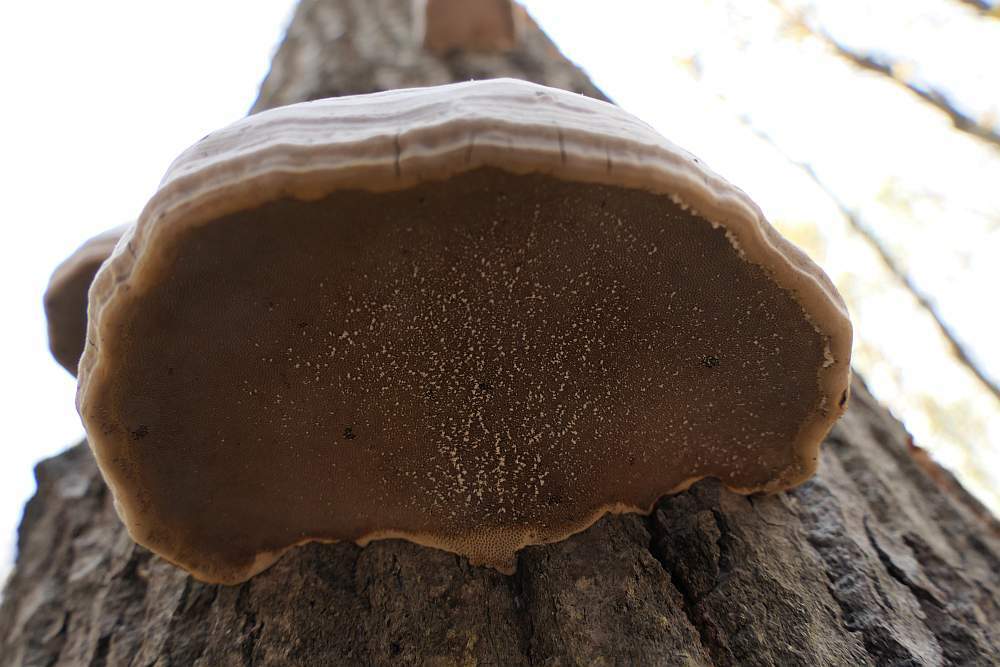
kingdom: Fungi
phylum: Basidiomycota
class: Agaricomycetes
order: Polyporales
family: Polyporaceae
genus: Fomes
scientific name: Fomes fomentarius
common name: Hoof fungus
